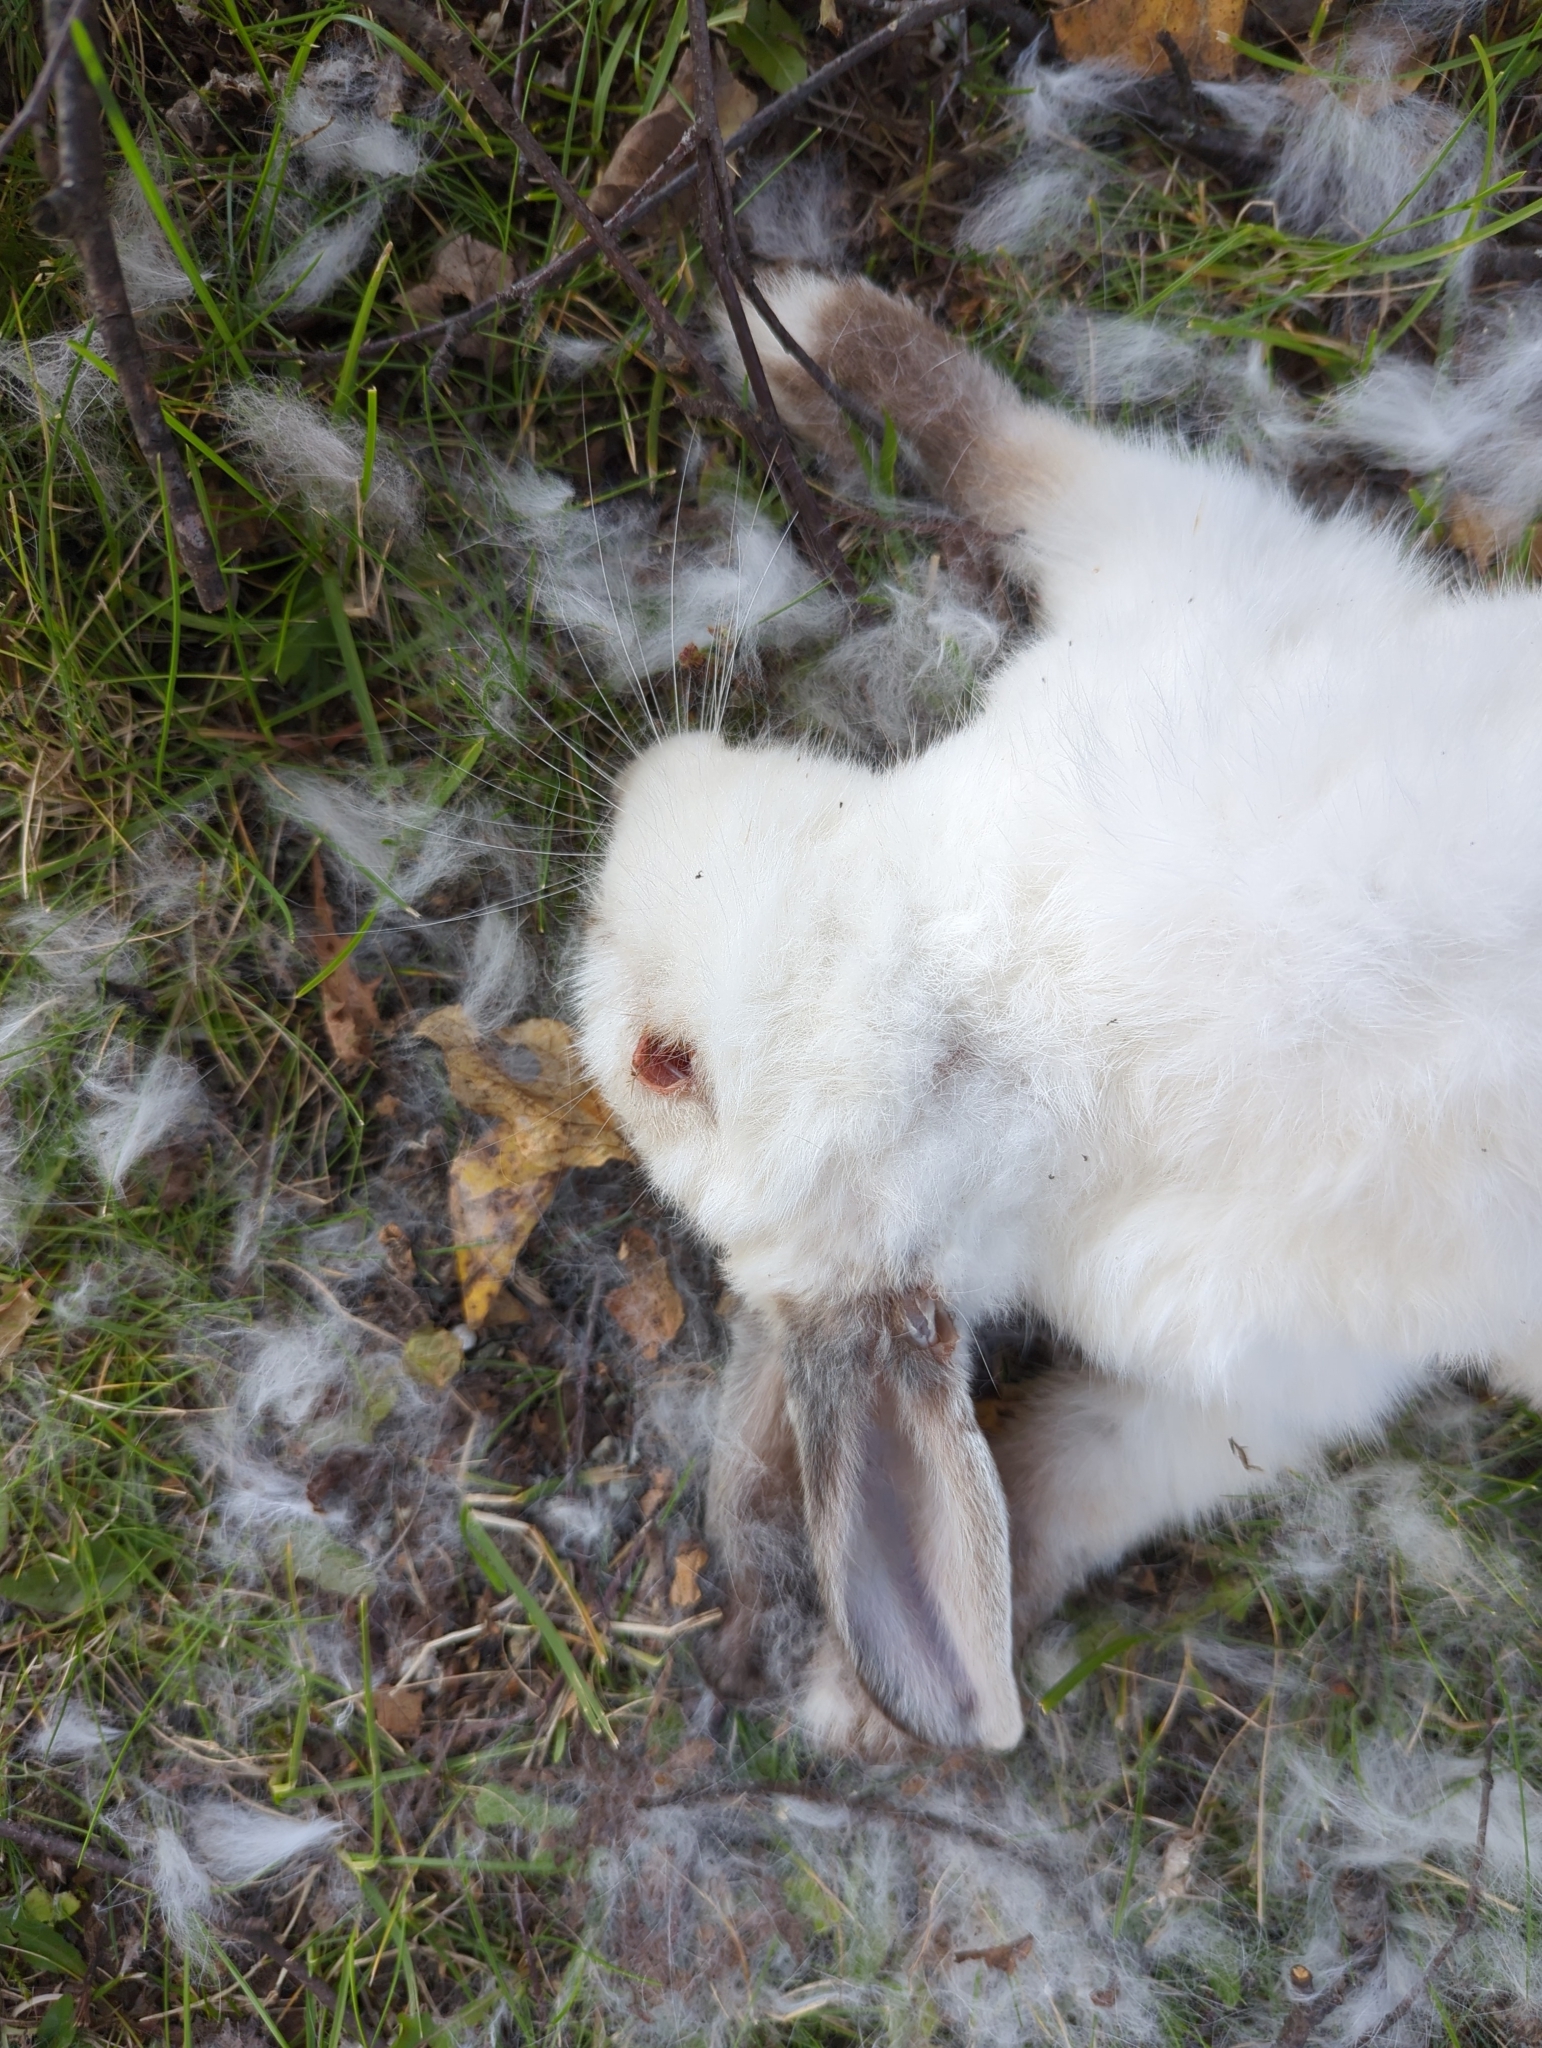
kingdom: Animalia
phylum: Chordata
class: Mammalia
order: Lagomorpha
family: Leporidae
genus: Oryctolagus
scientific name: Oryctolagus cuniculus
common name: European rabbit
